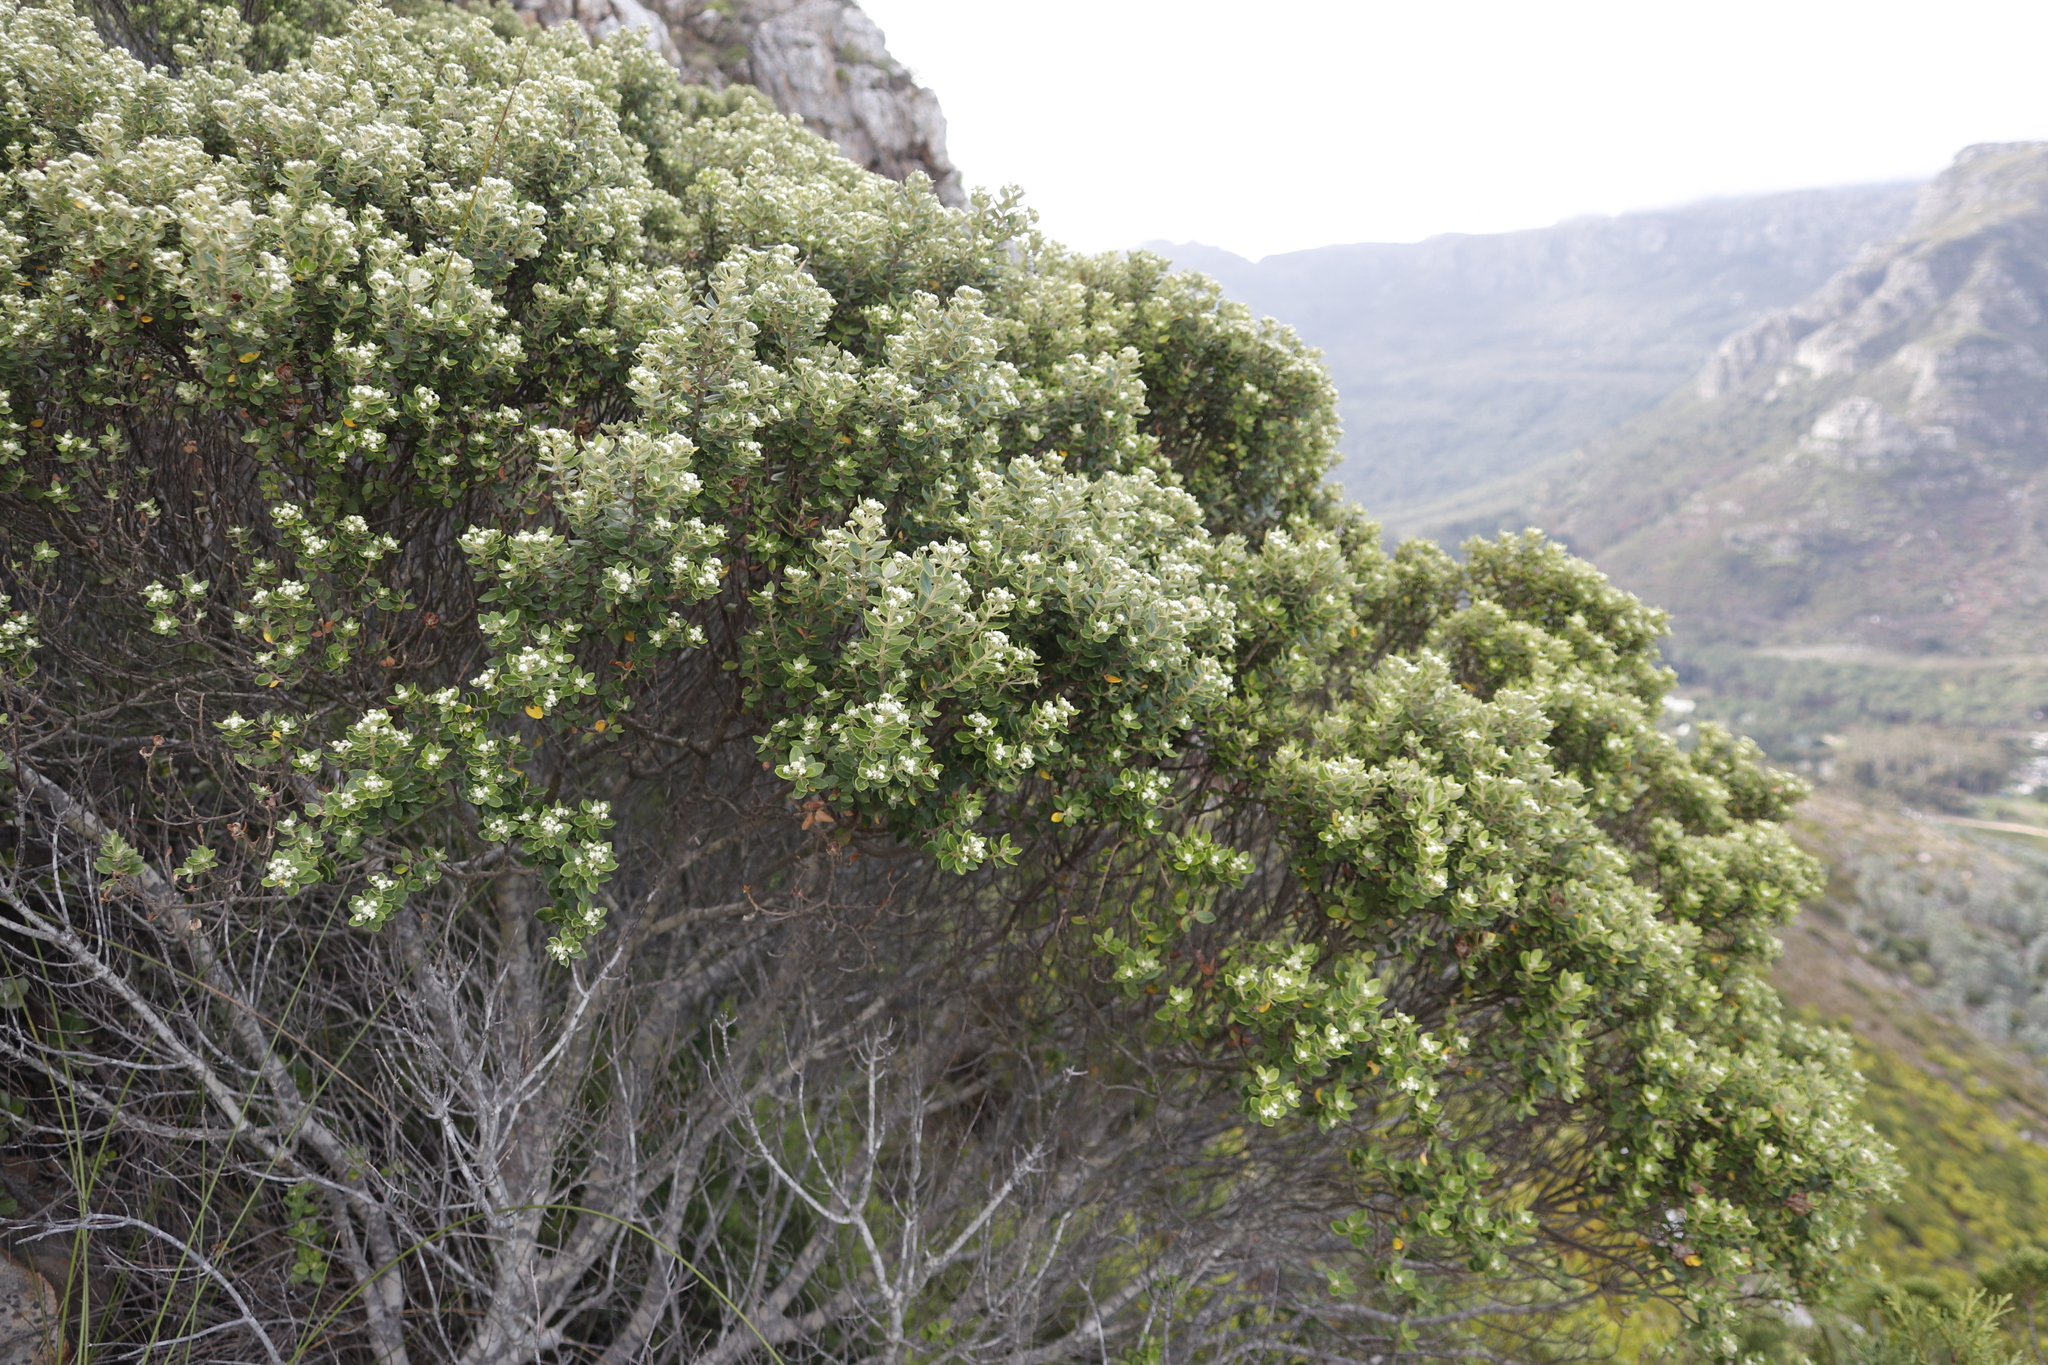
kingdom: Plantae
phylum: Tracheophyta
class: Magnoliopsida
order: Rosales
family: Rhamnaceae
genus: Phylica
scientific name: Phylica buxifolia
